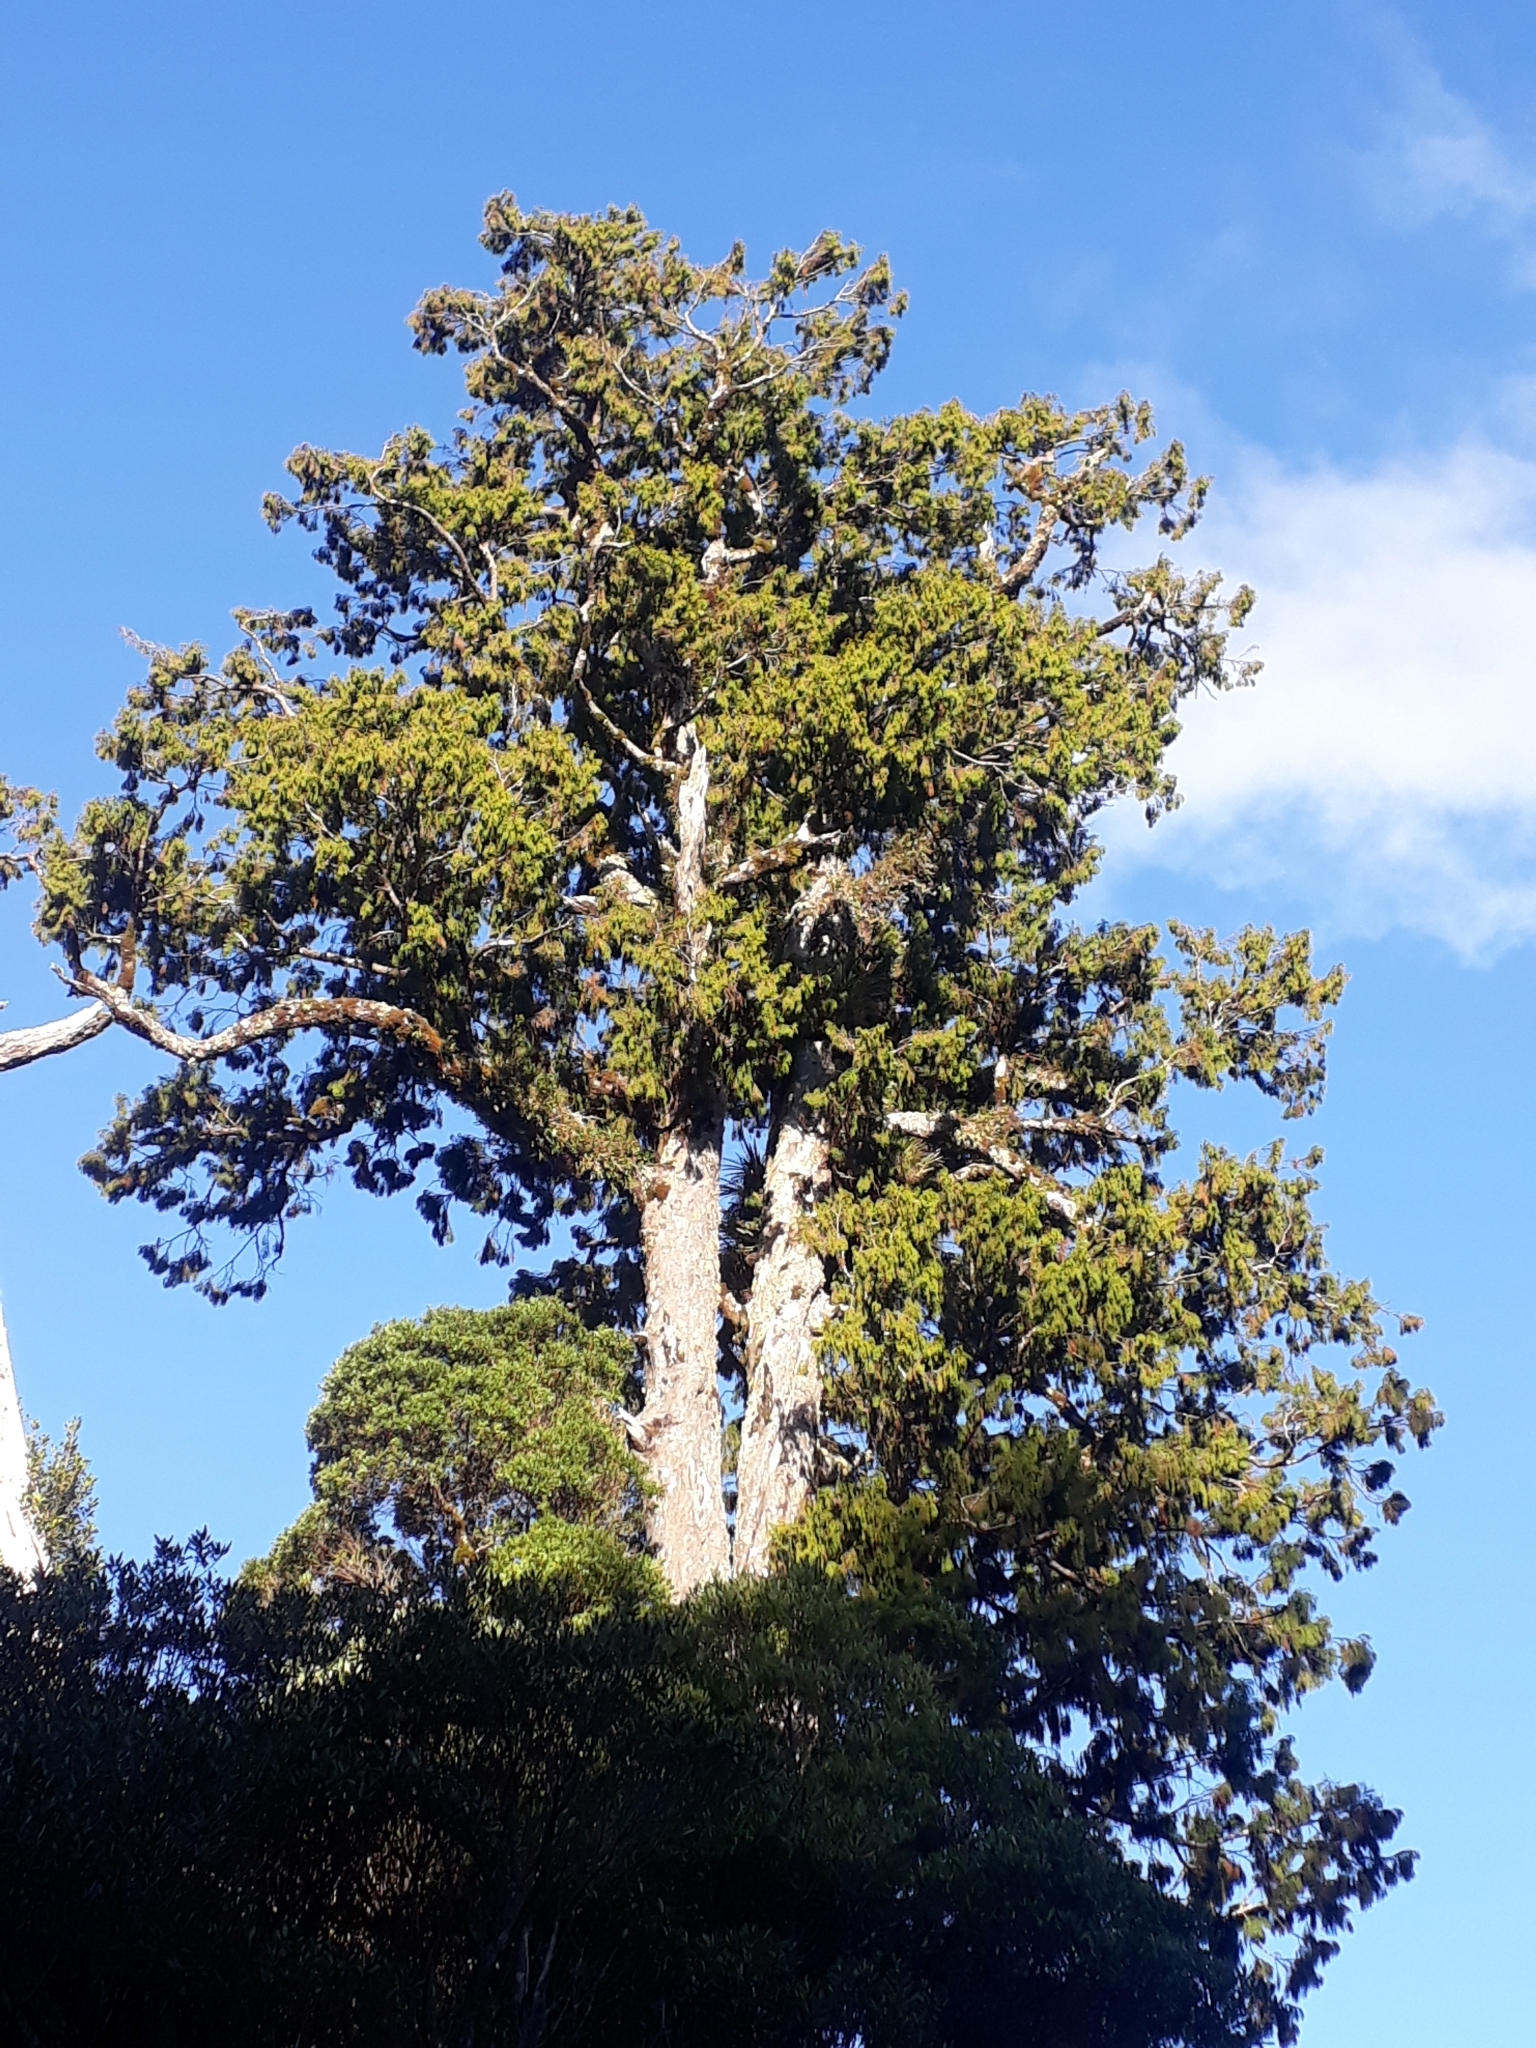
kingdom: Plantae
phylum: Tracheophyta
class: Pinopsida
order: Pinales
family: Podocarpaceae
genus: Dacrydium
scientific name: Dacrydium cupressinum
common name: Red pine
